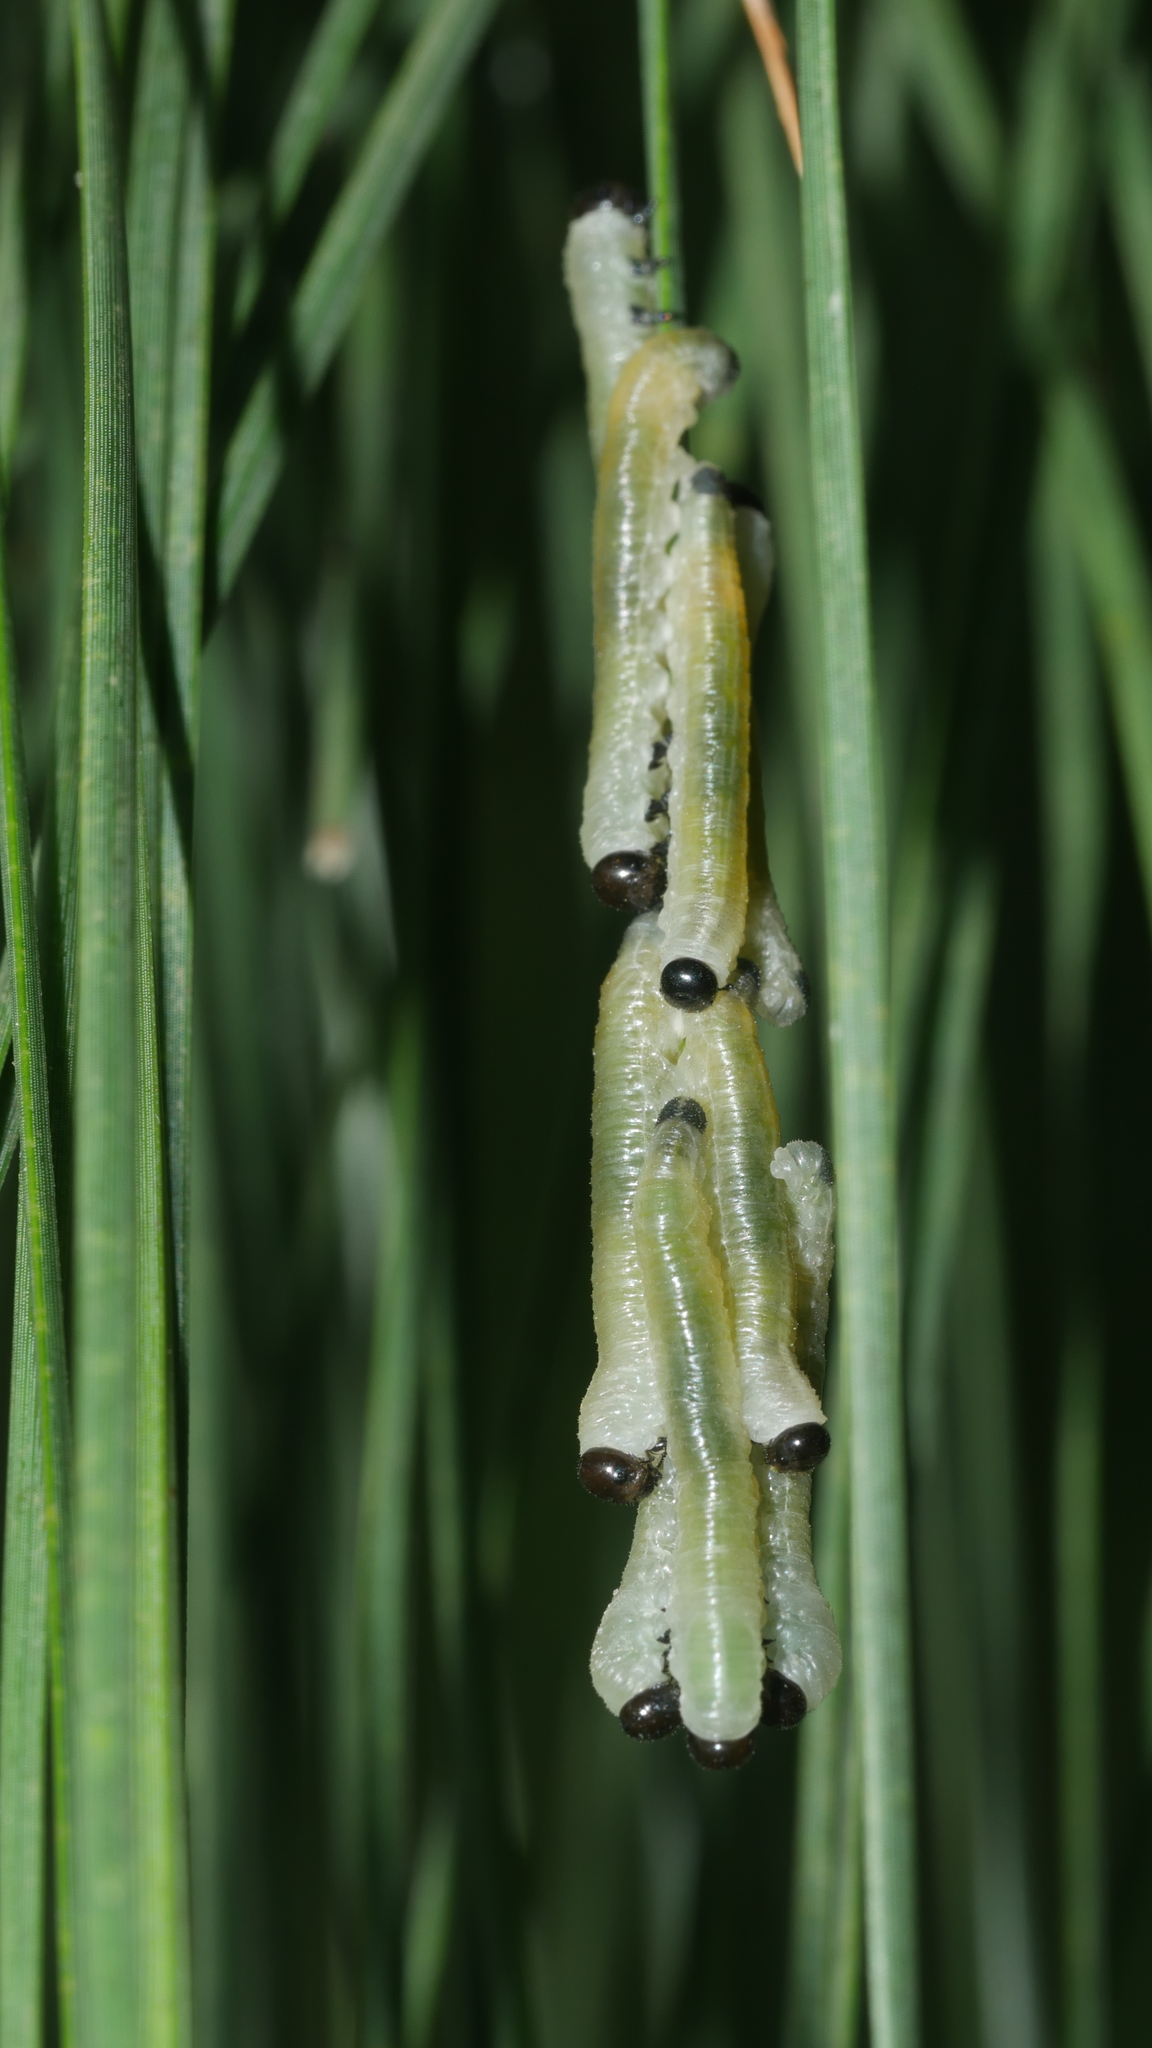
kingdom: Animalia
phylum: Arthropoda
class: Insecta
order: Hymenoptera
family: Diprionidae
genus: Neodiprion
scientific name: Neodiprion
